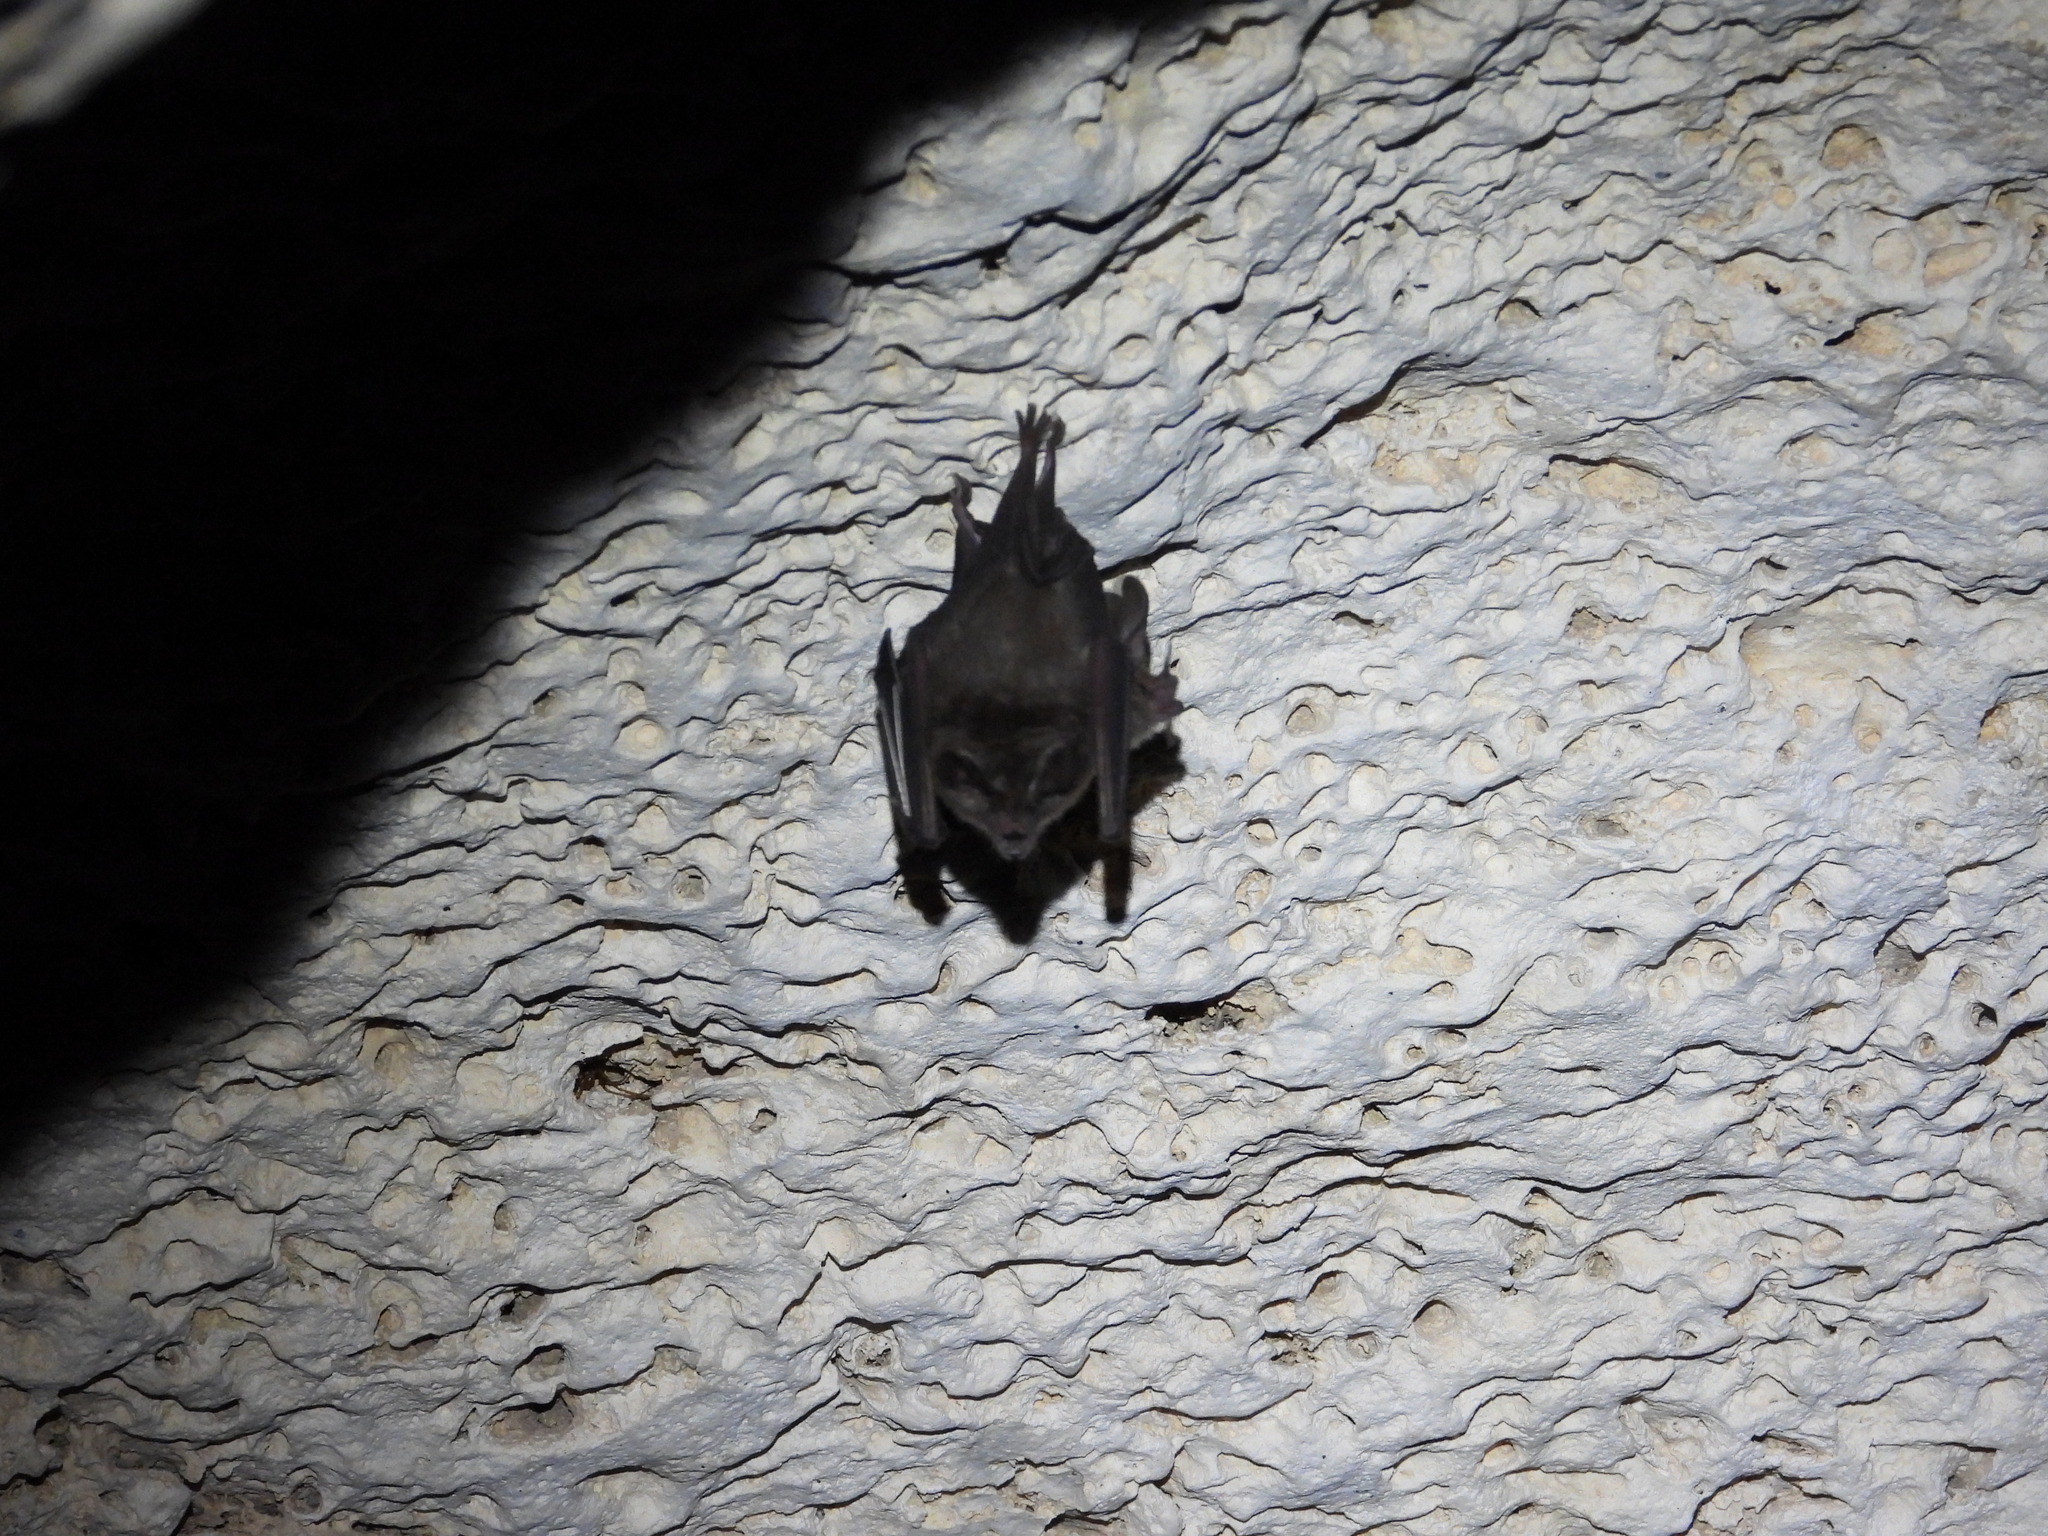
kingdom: Animalia
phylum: Chordata
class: Mammalia
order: Chiroptera
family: Phyllostomidae
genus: Micronycteris
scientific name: Micronycteris microtis
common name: Common big-eared bat
